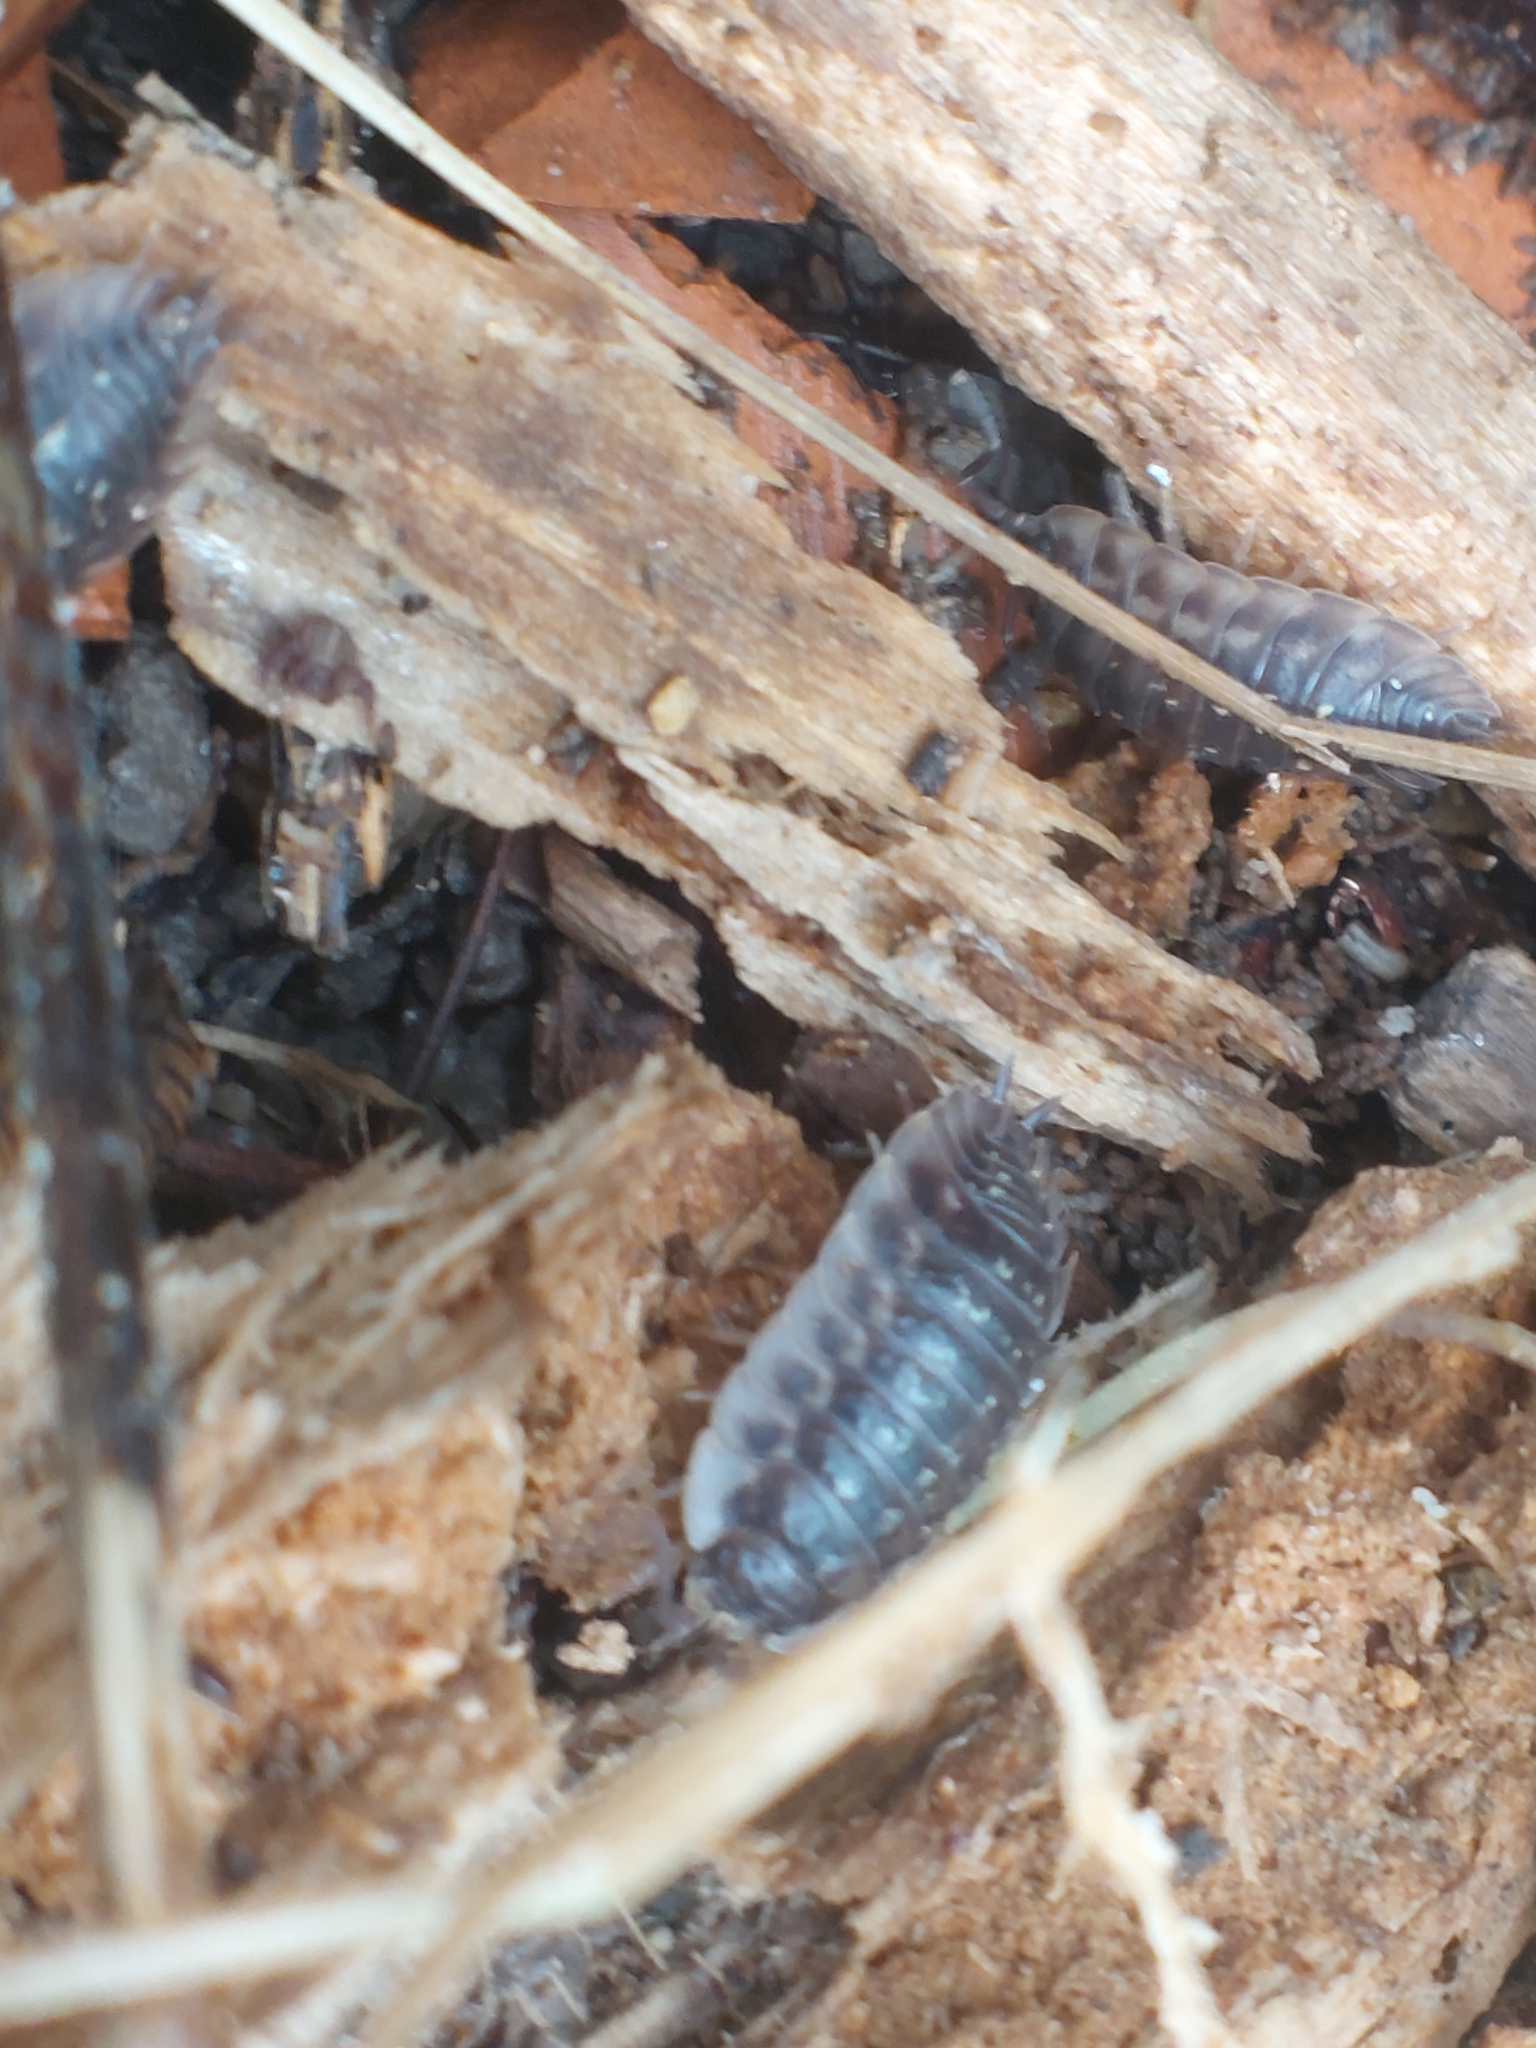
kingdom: Animalia
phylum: Arthropoda
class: Malacostraca
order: Isopoda
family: Oniscidae
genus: Oniscus
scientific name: Oniscus asellus
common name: Common shiny woodlouse
